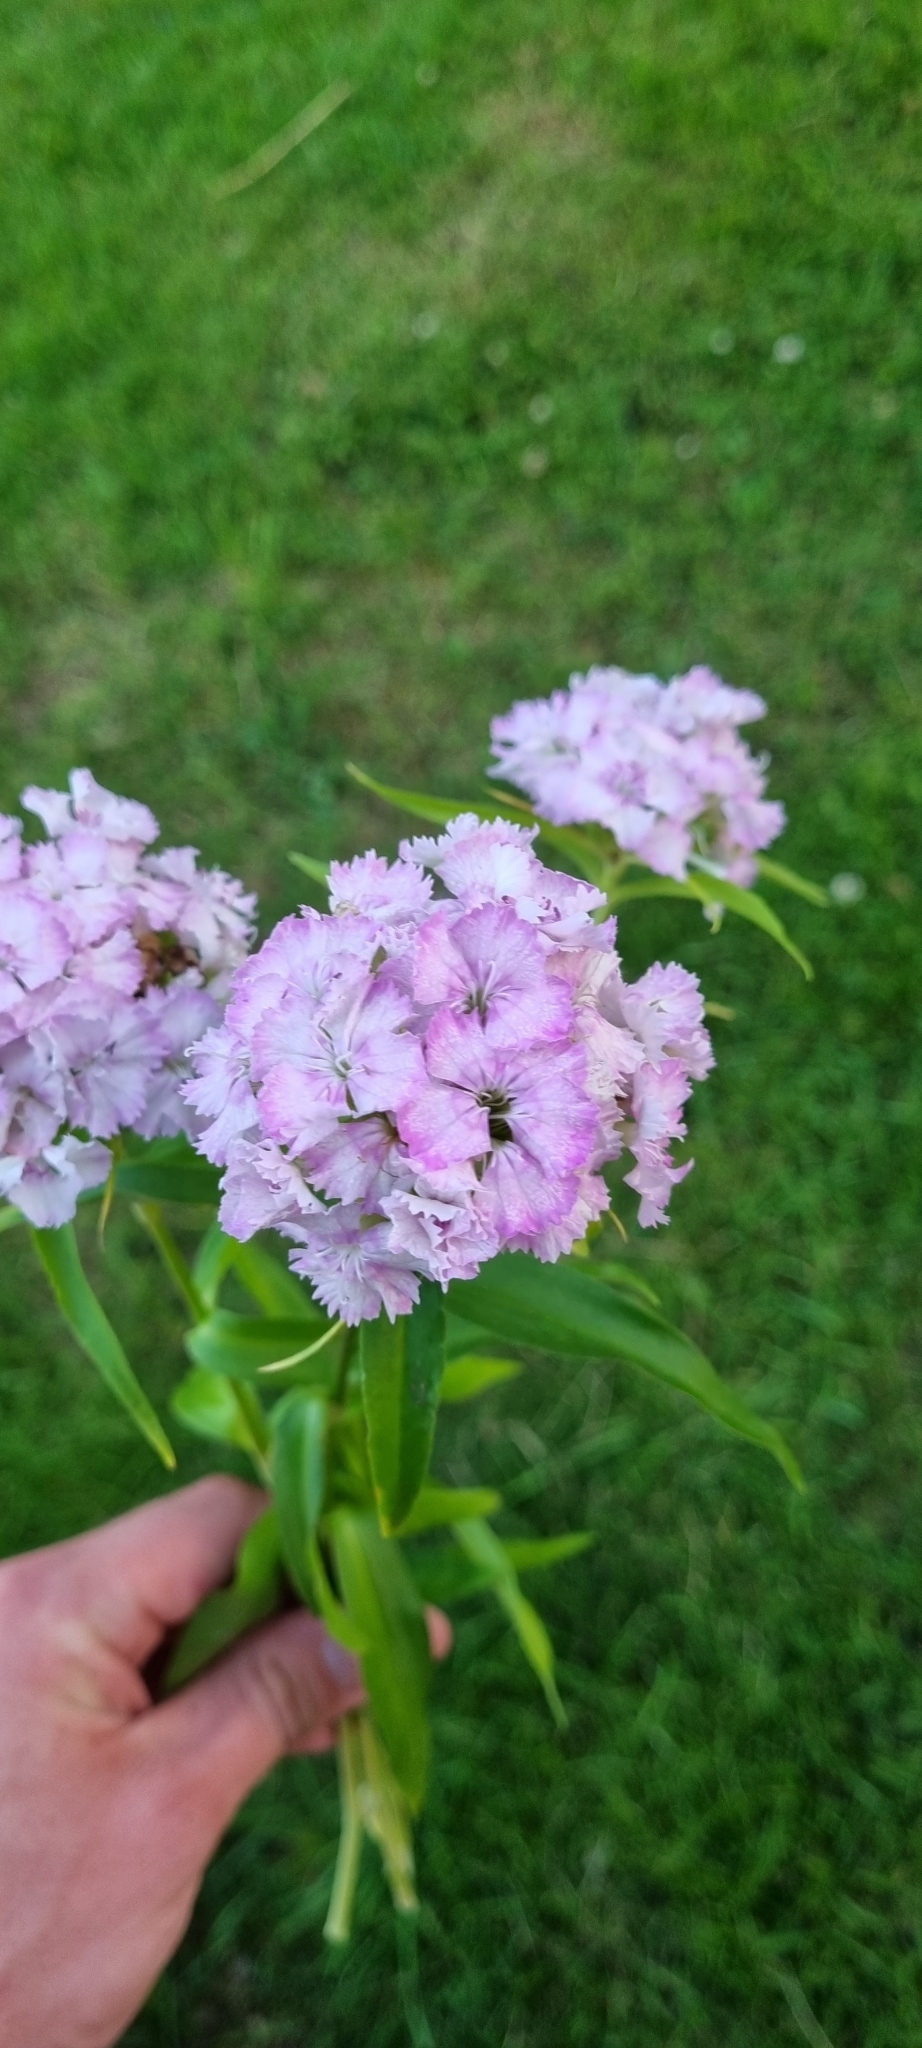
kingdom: Plantae
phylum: Tracheophyta
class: Magnoliopsida
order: Caryophyllales
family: Caryophyllaceae
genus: Dianthus
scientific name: Dianthus barbatus
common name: Sweet-william
